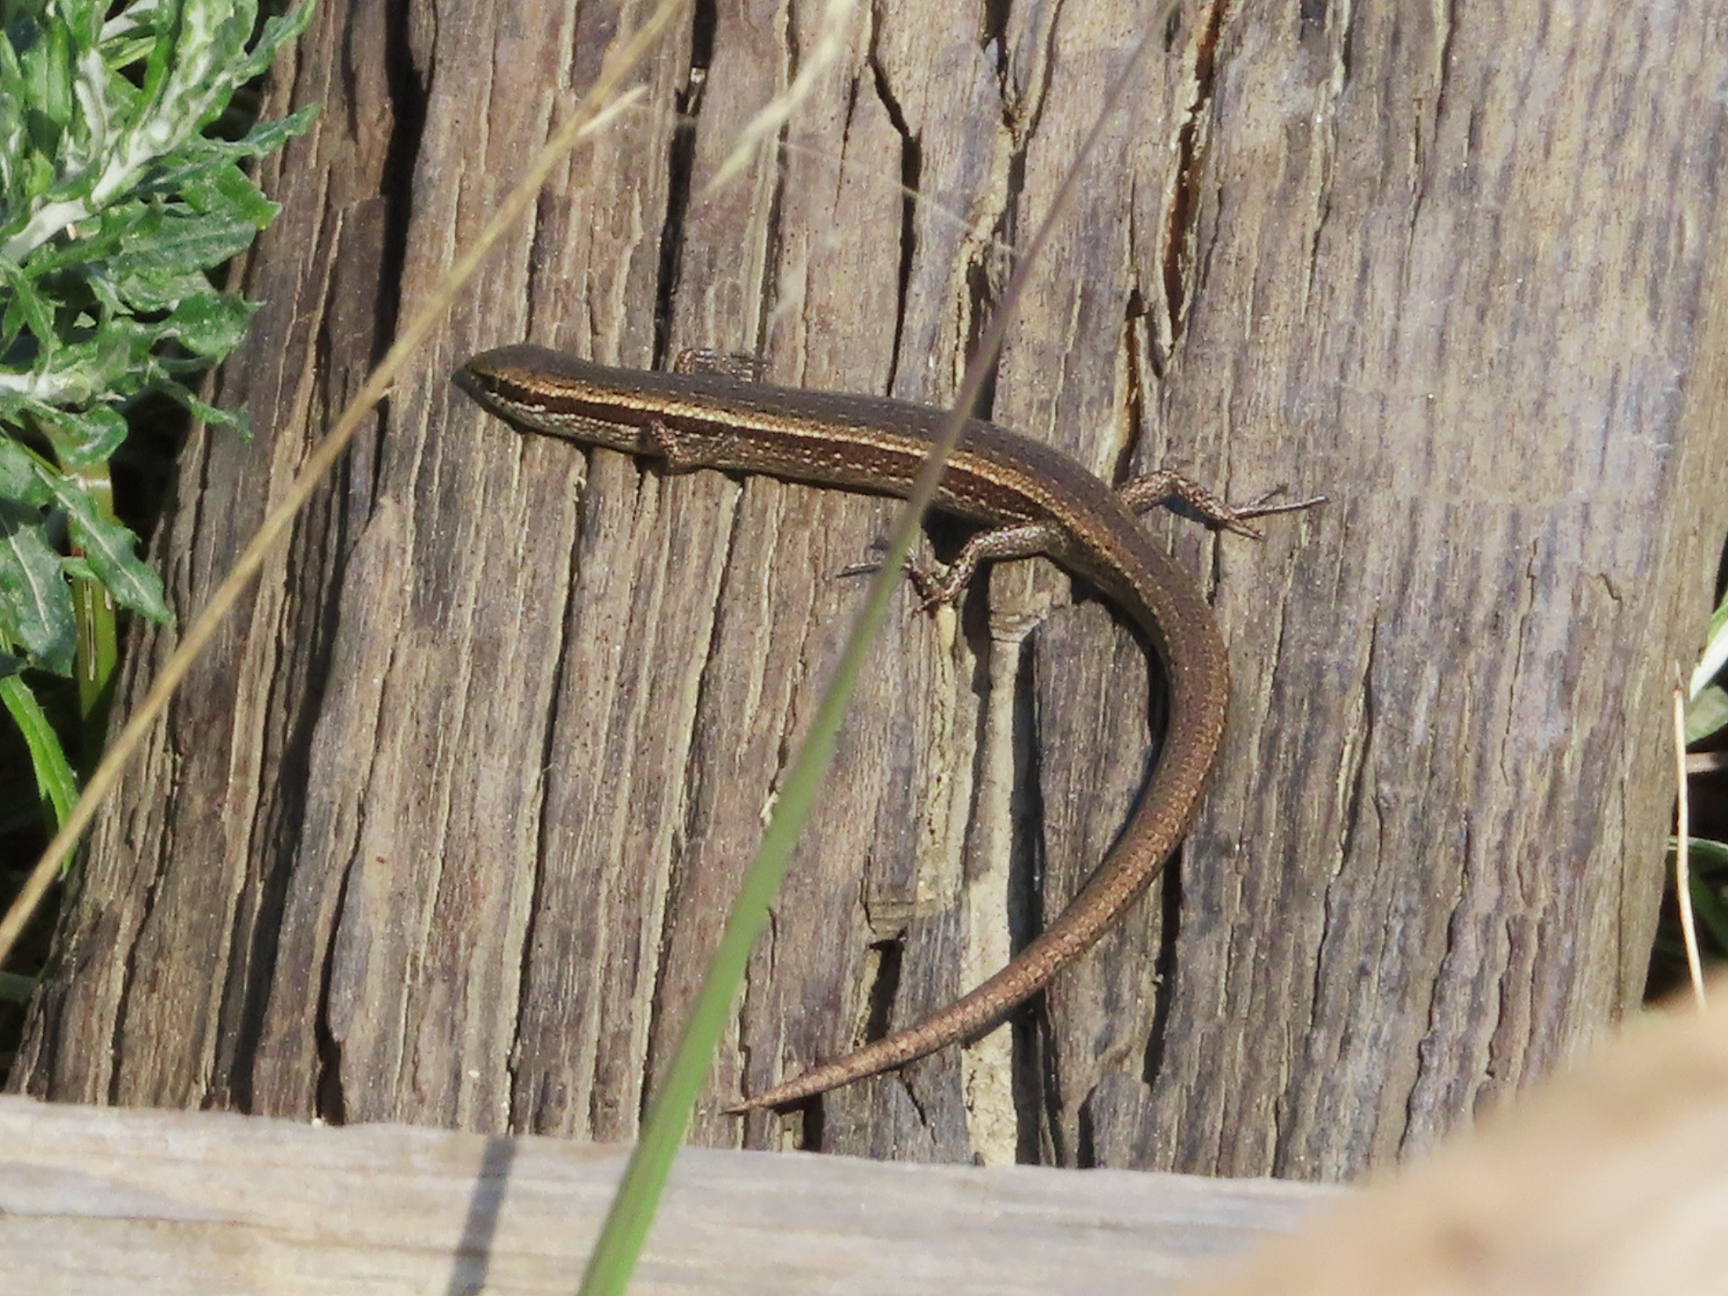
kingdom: Animalia
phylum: Chordata
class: Squamata
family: Scincidae
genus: Ablepharus
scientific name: Ablepharus kitaibelii
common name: Juniper skink
